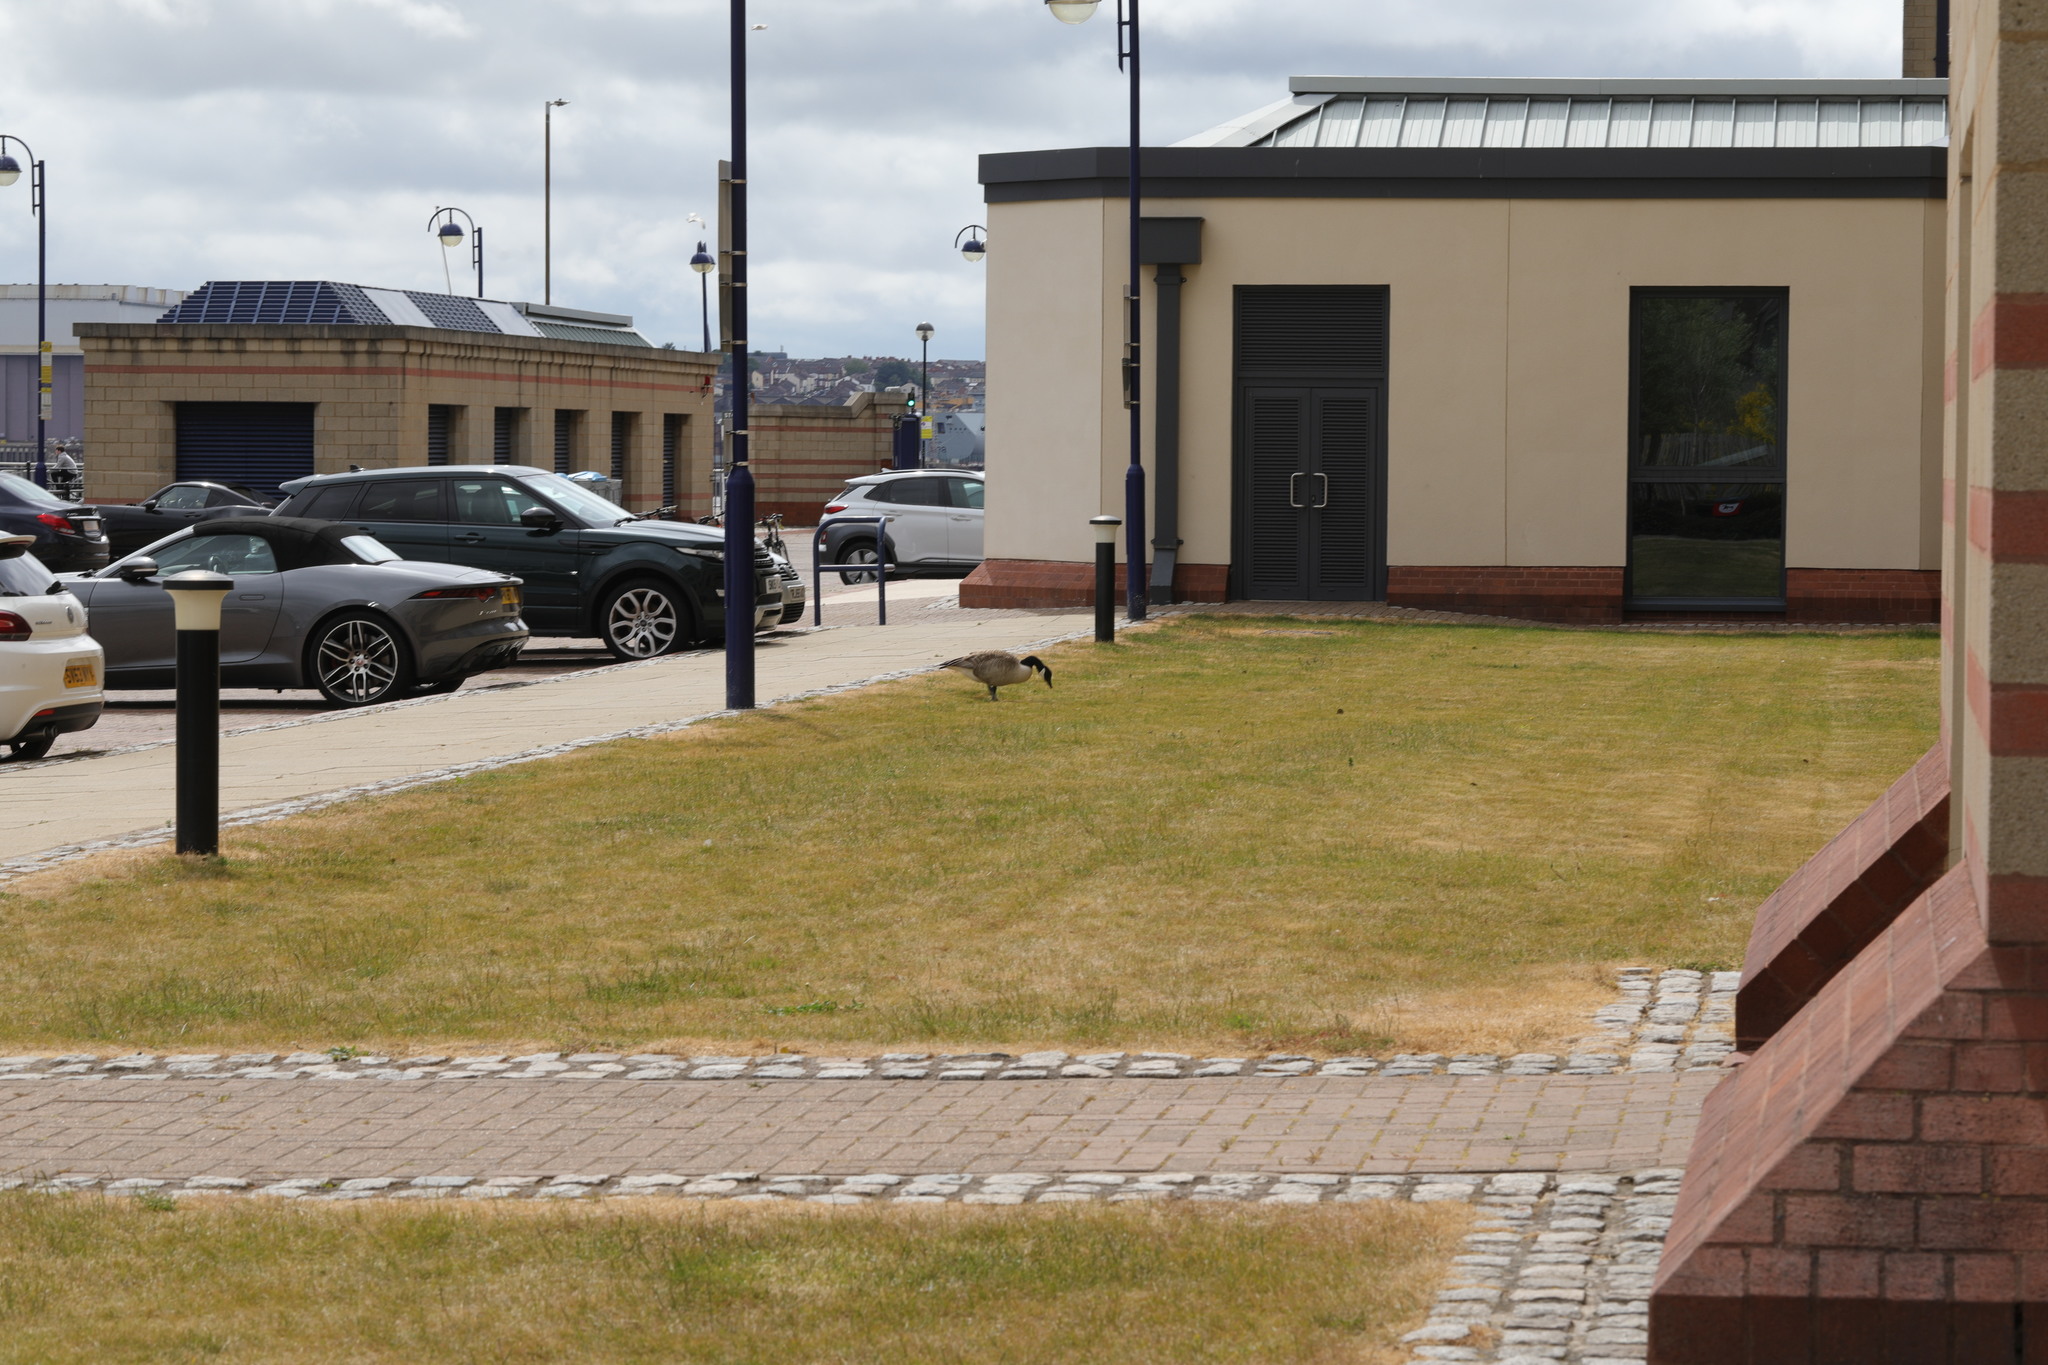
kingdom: Animalia
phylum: Chordata
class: Aves
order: Anseriformes
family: Anatidae
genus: Branta
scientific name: Branta canadensis
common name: Canada goose
